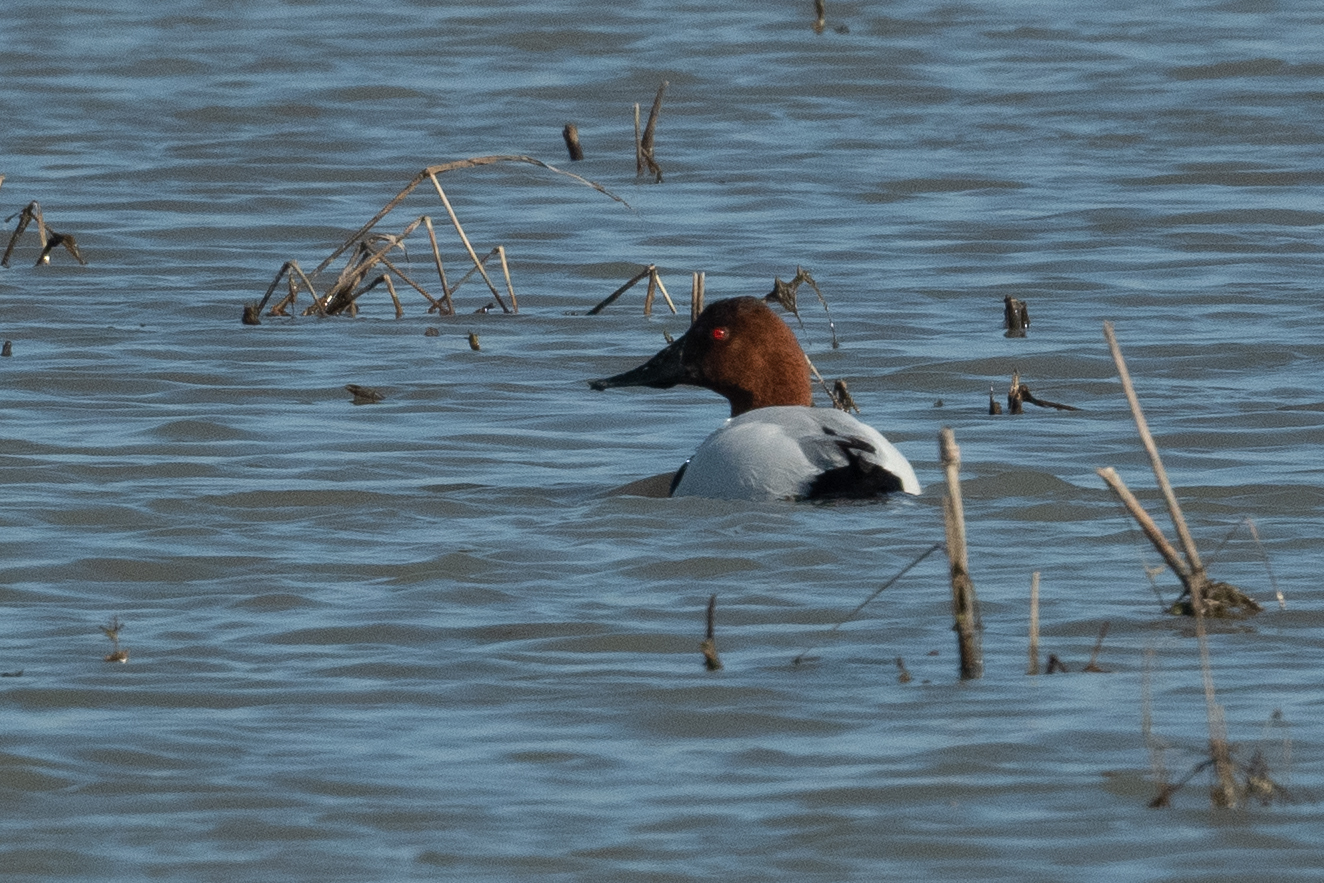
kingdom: Animalia
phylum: Chordata
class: Aves
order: Anseriformes
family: Anatidae
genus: Aythya
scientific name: Aythya valisineria
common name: Canvasback
